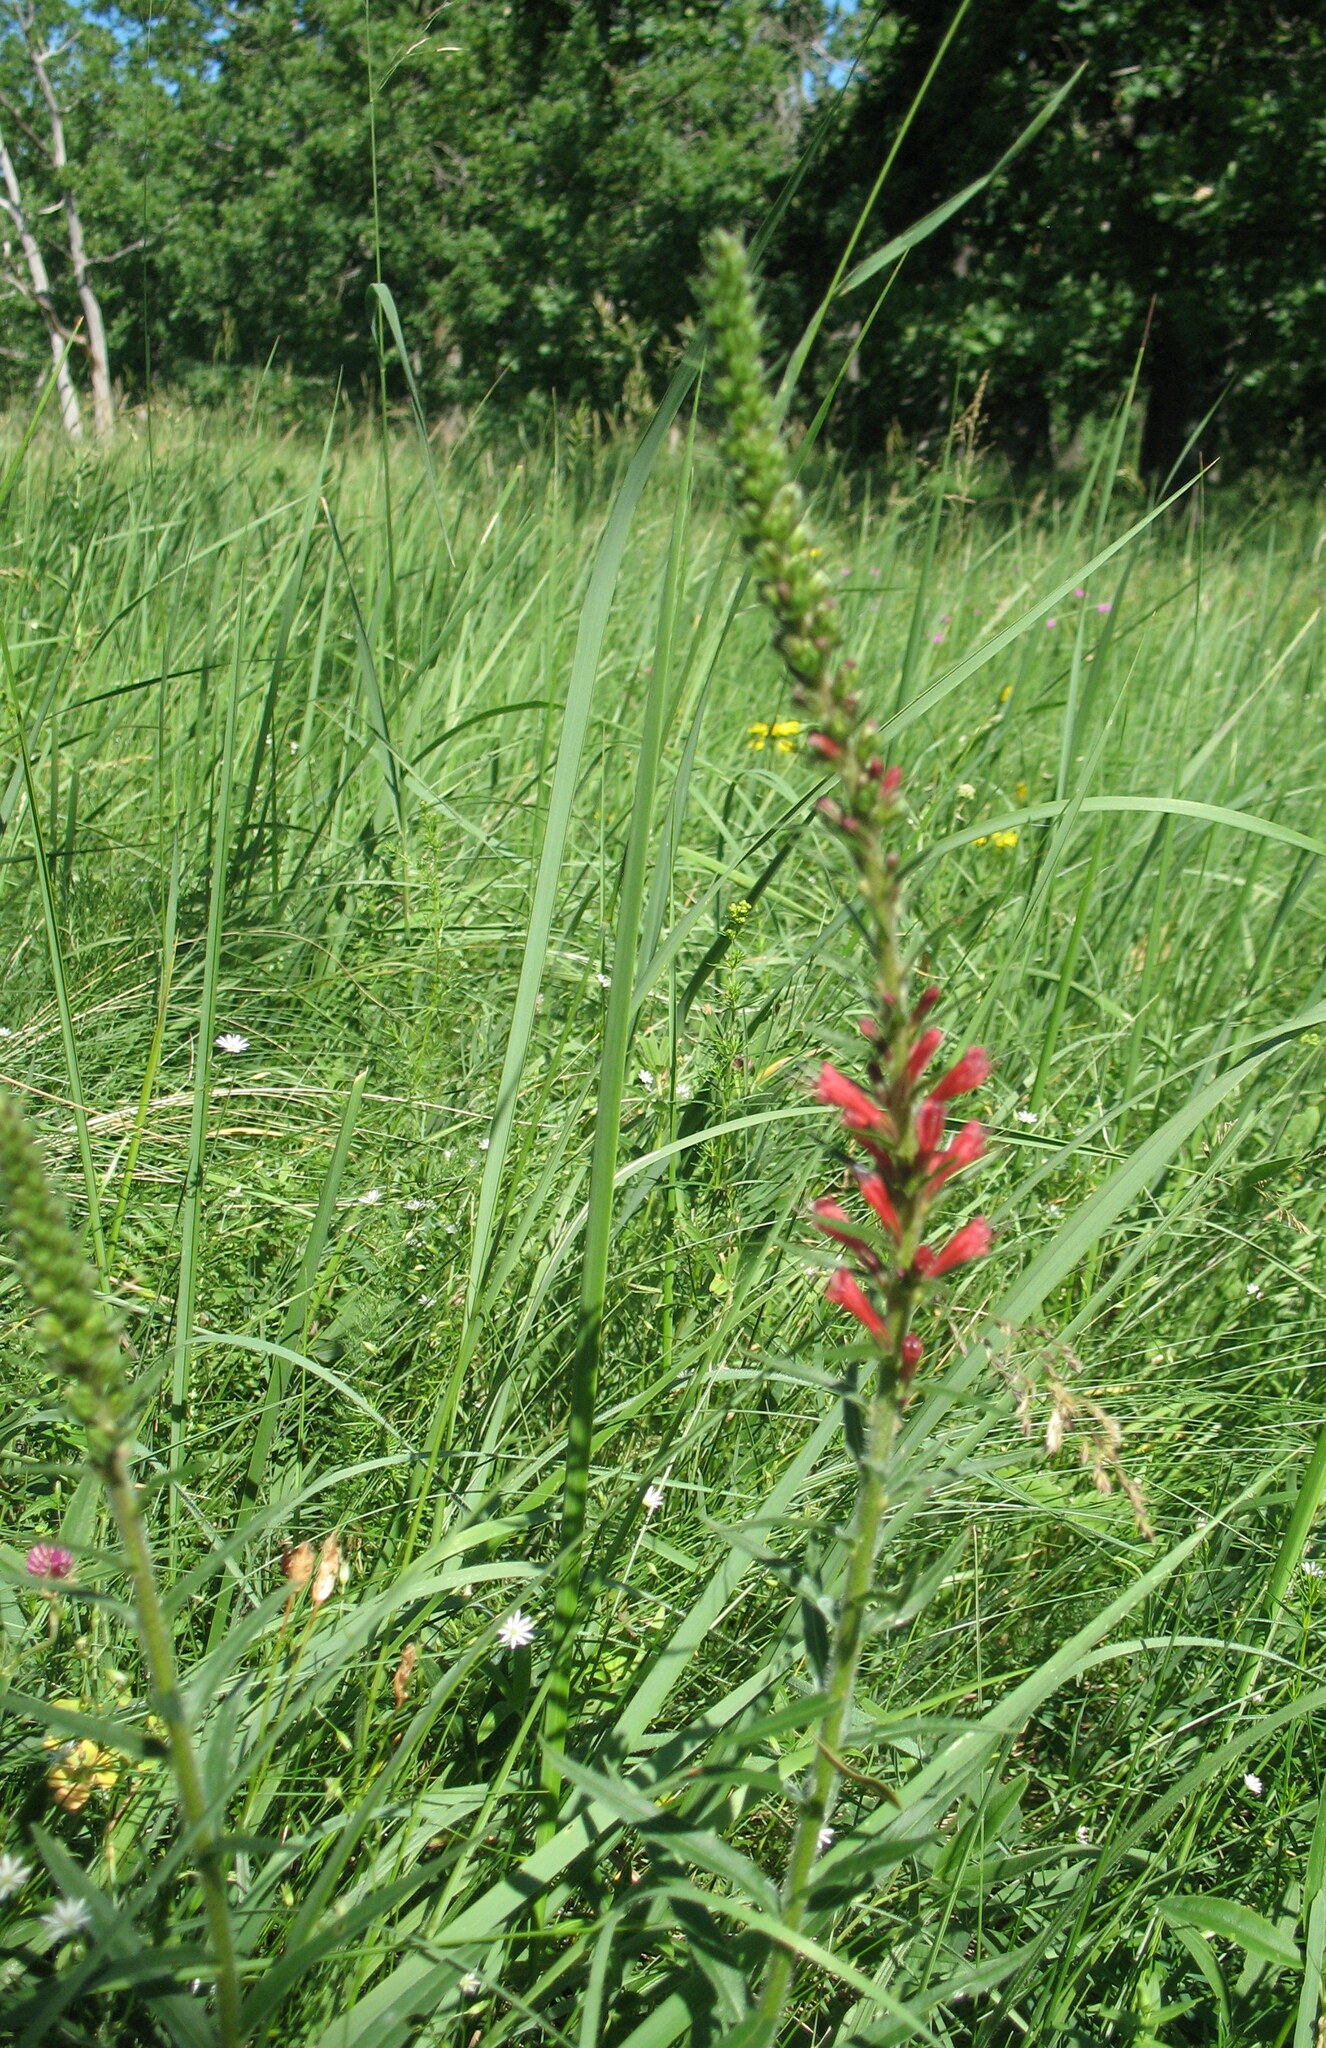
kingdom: Plantae
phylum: Tracheophyta
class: Magnoliopsida
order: Boraginales
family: Boraginaceae
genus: Pontechium
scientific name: Pontechium maculatum
